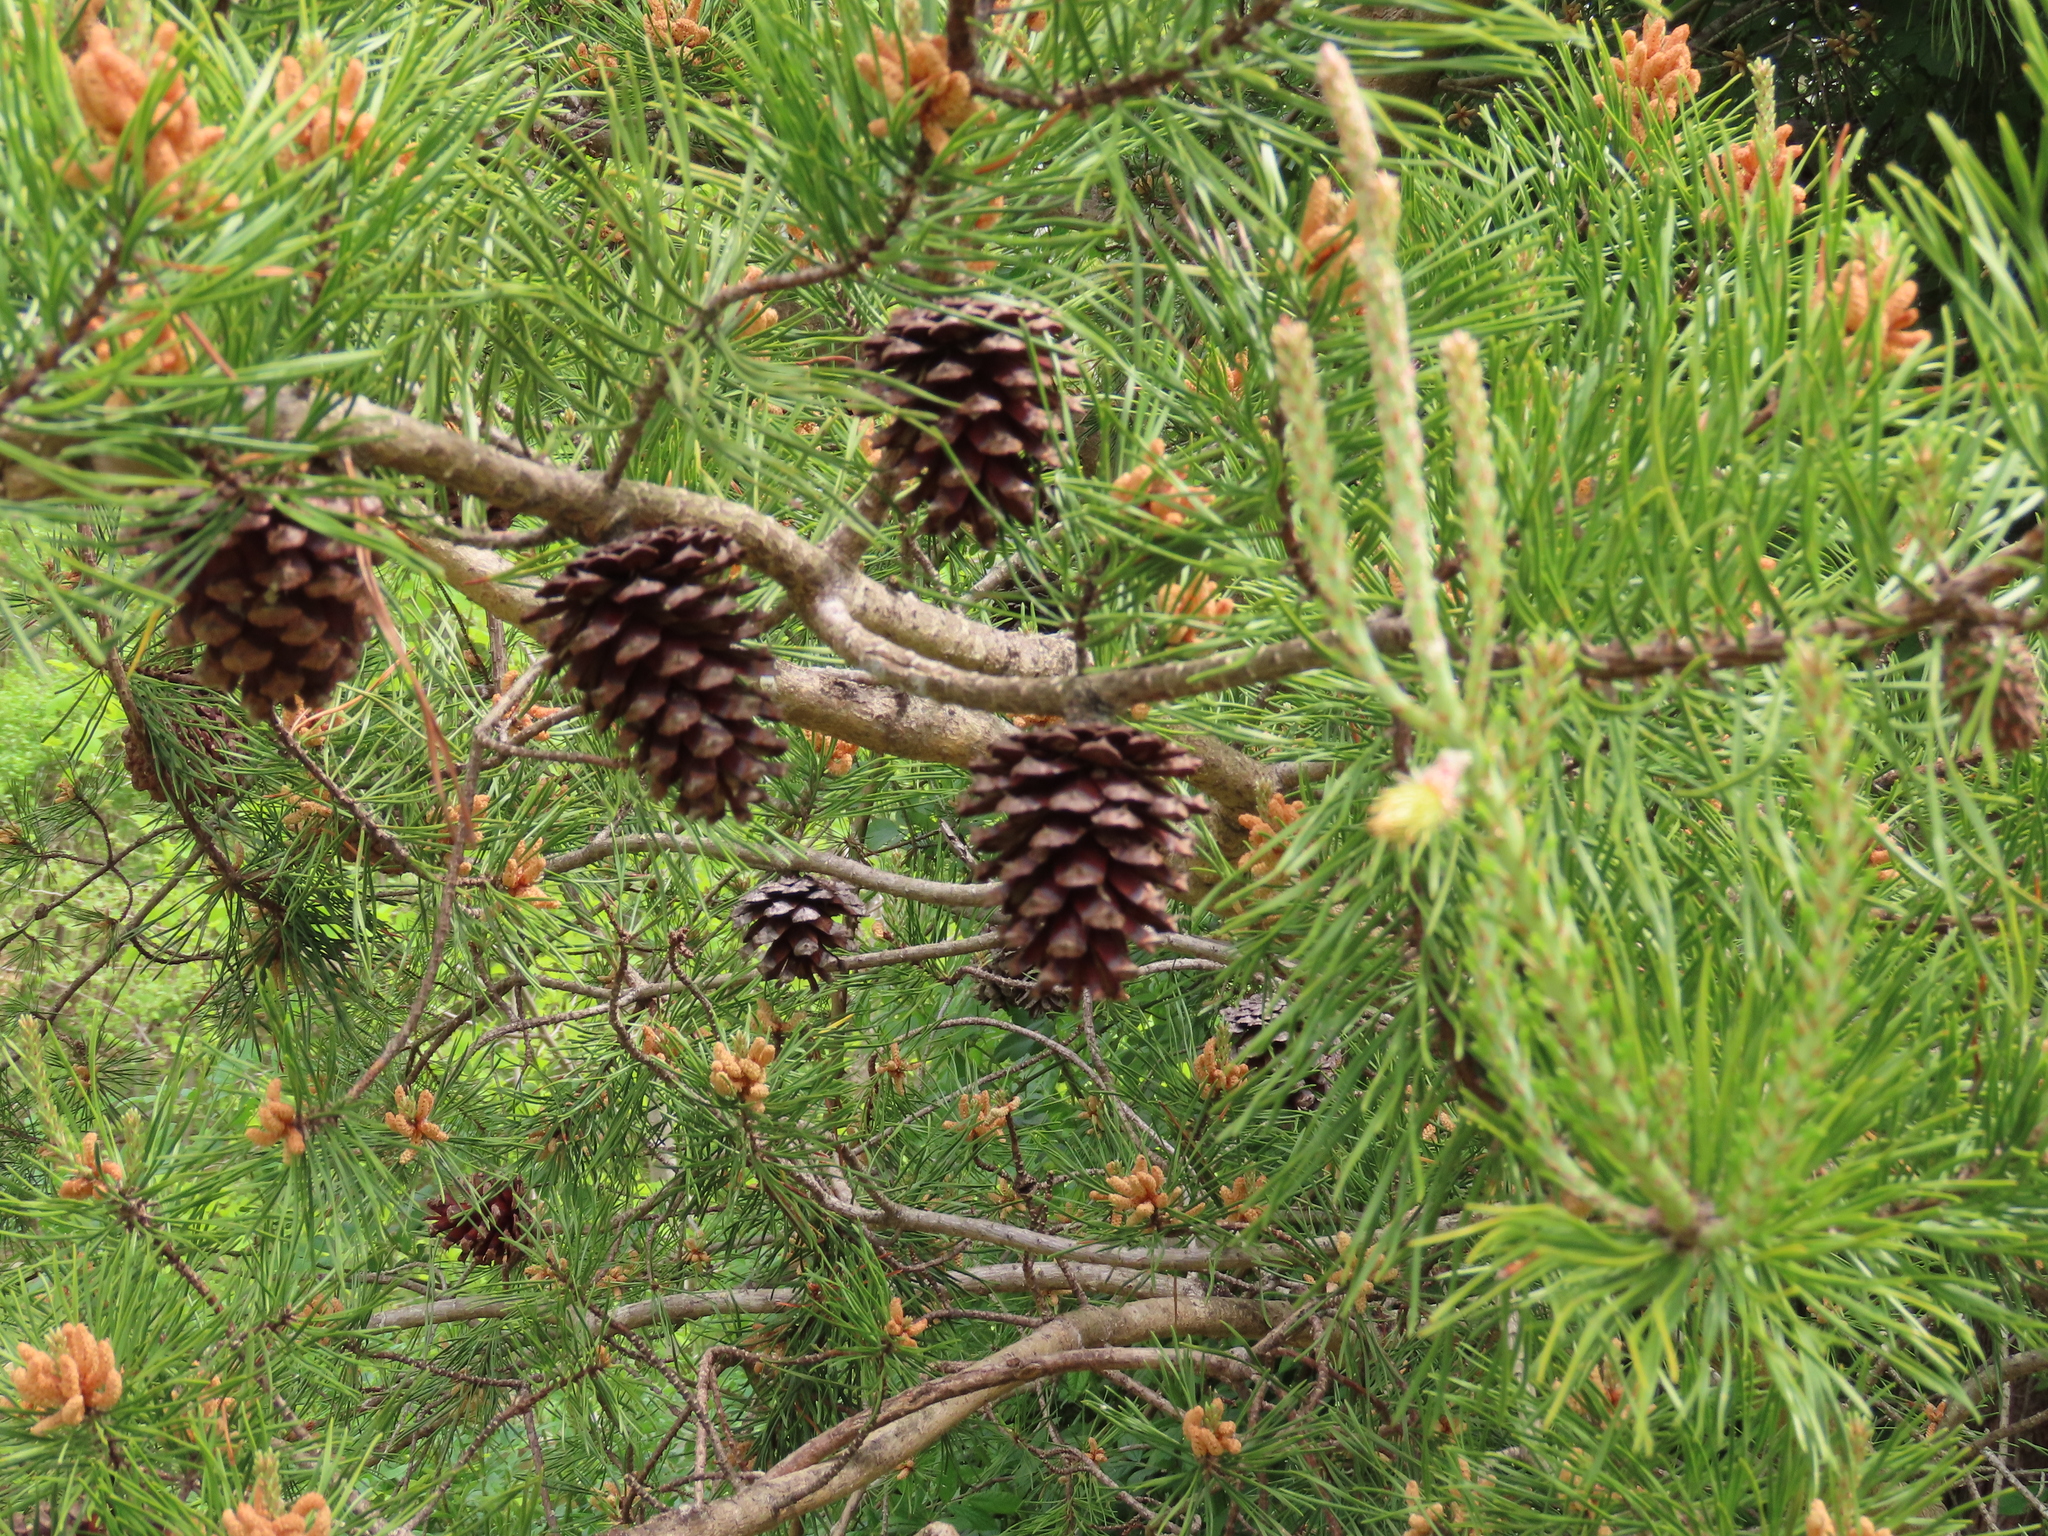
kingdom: Plantae
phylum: Tracheophyta
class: Pinopsida
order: Pinales
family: Pinaceae
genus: Pinus
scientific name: Pinus virginiana
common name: Scrub pine
